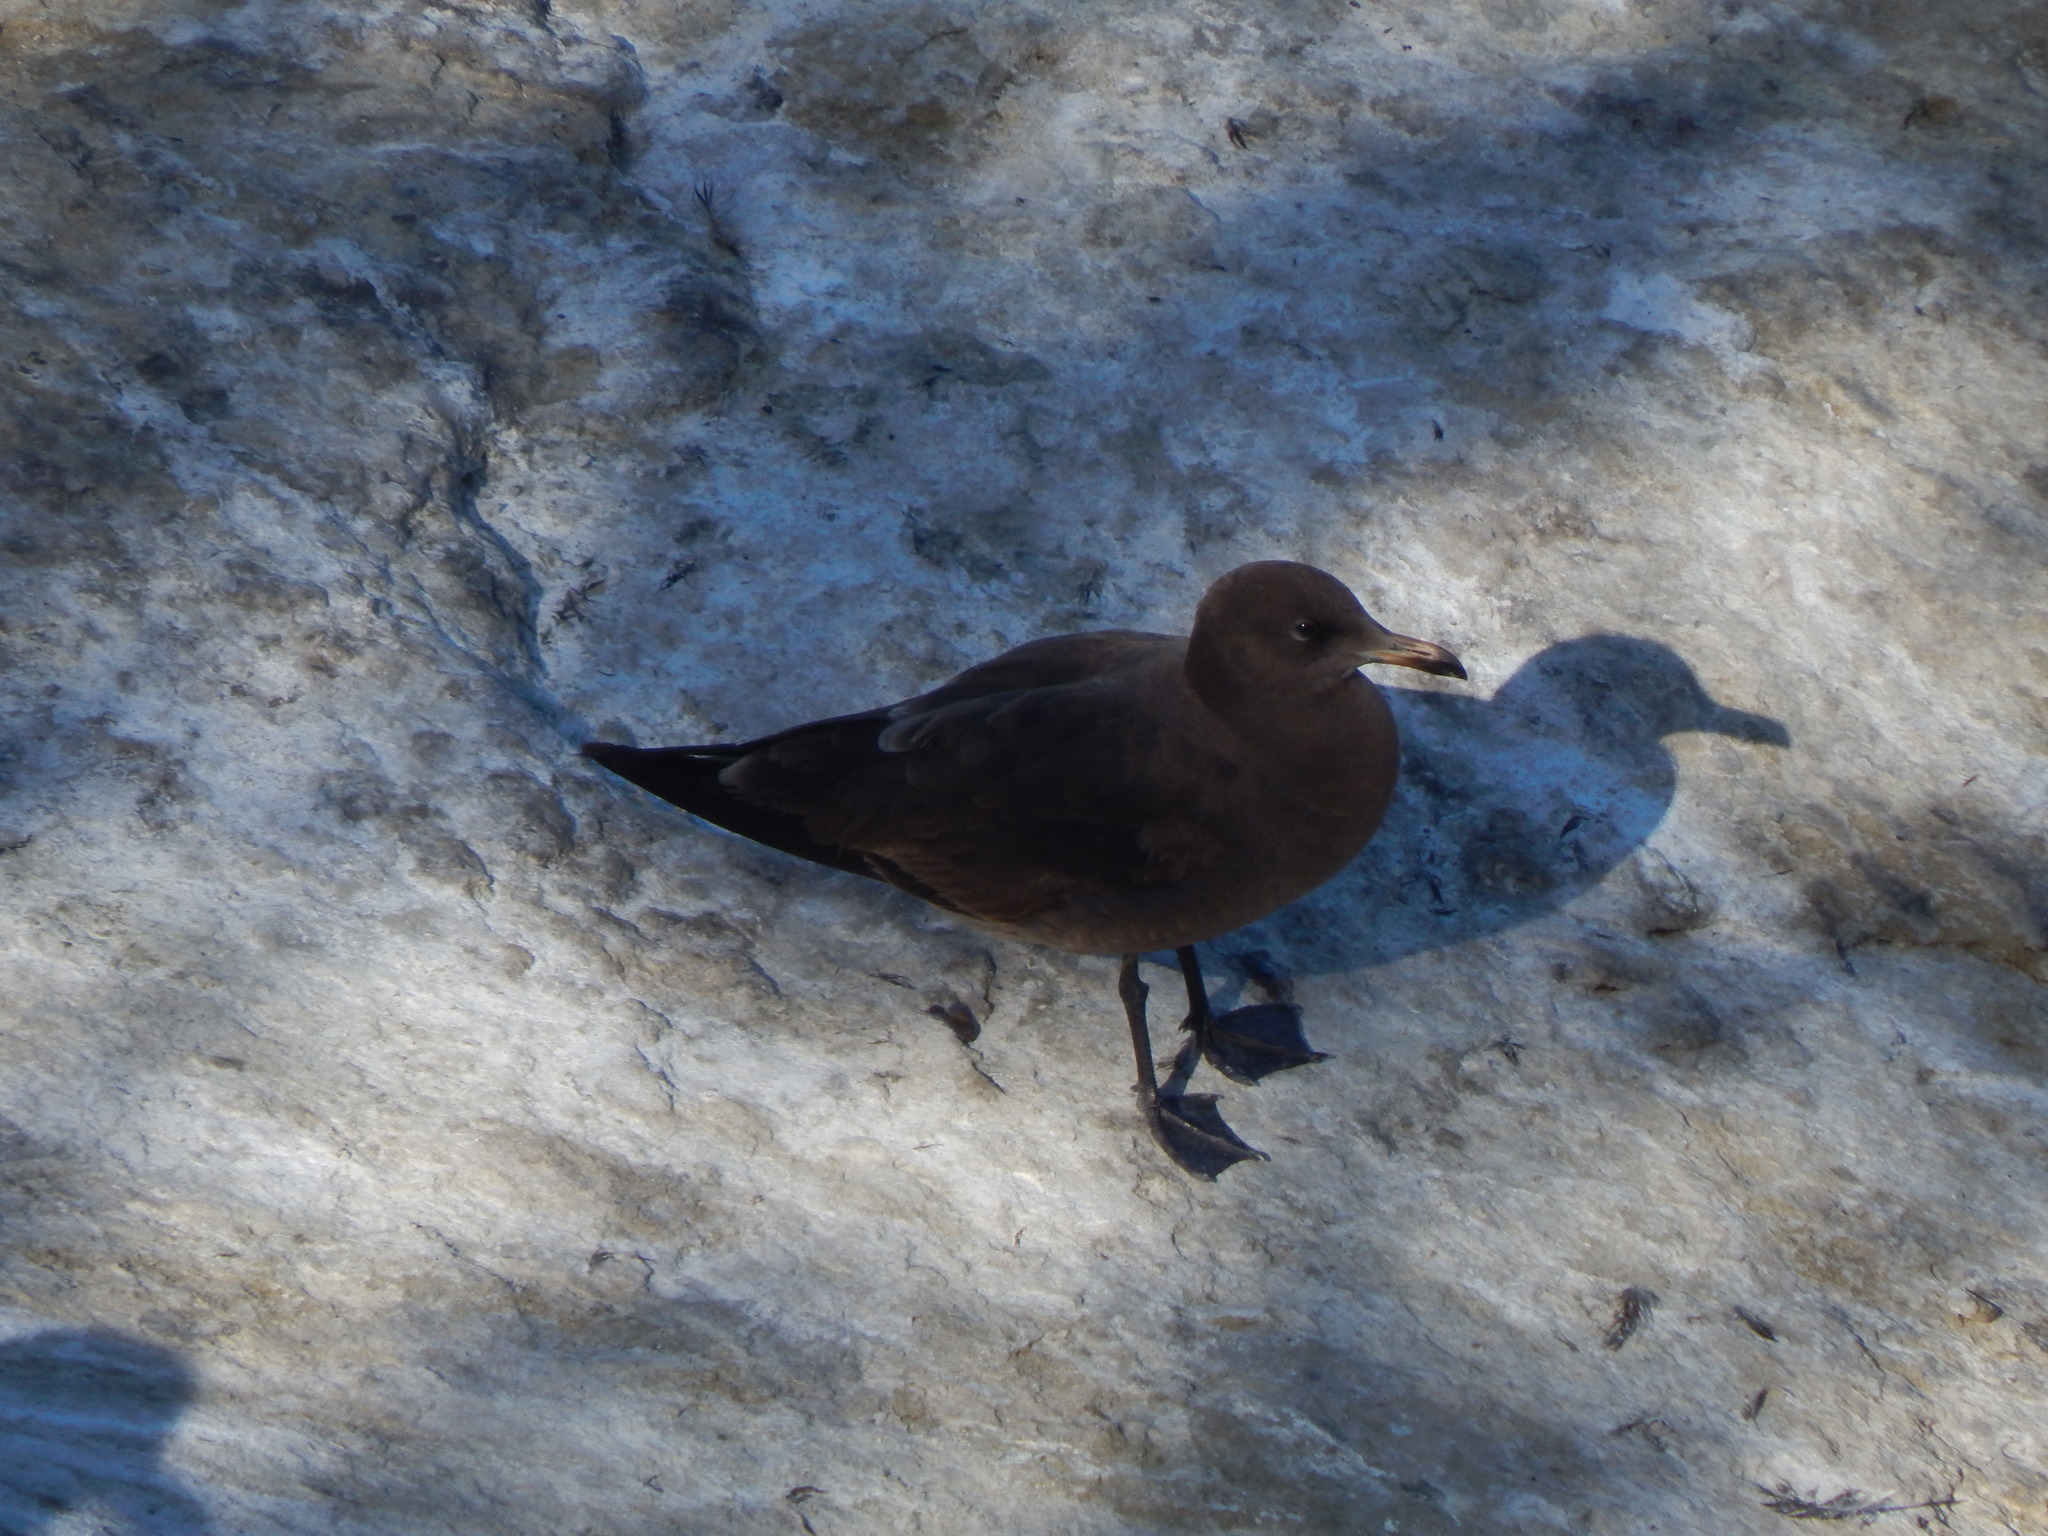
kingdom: Animalia
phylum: Chordata
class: Aves
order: Charadriiformes
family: Laridae
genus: Larus
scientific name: Larus heermanni
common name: Heermann's gull
